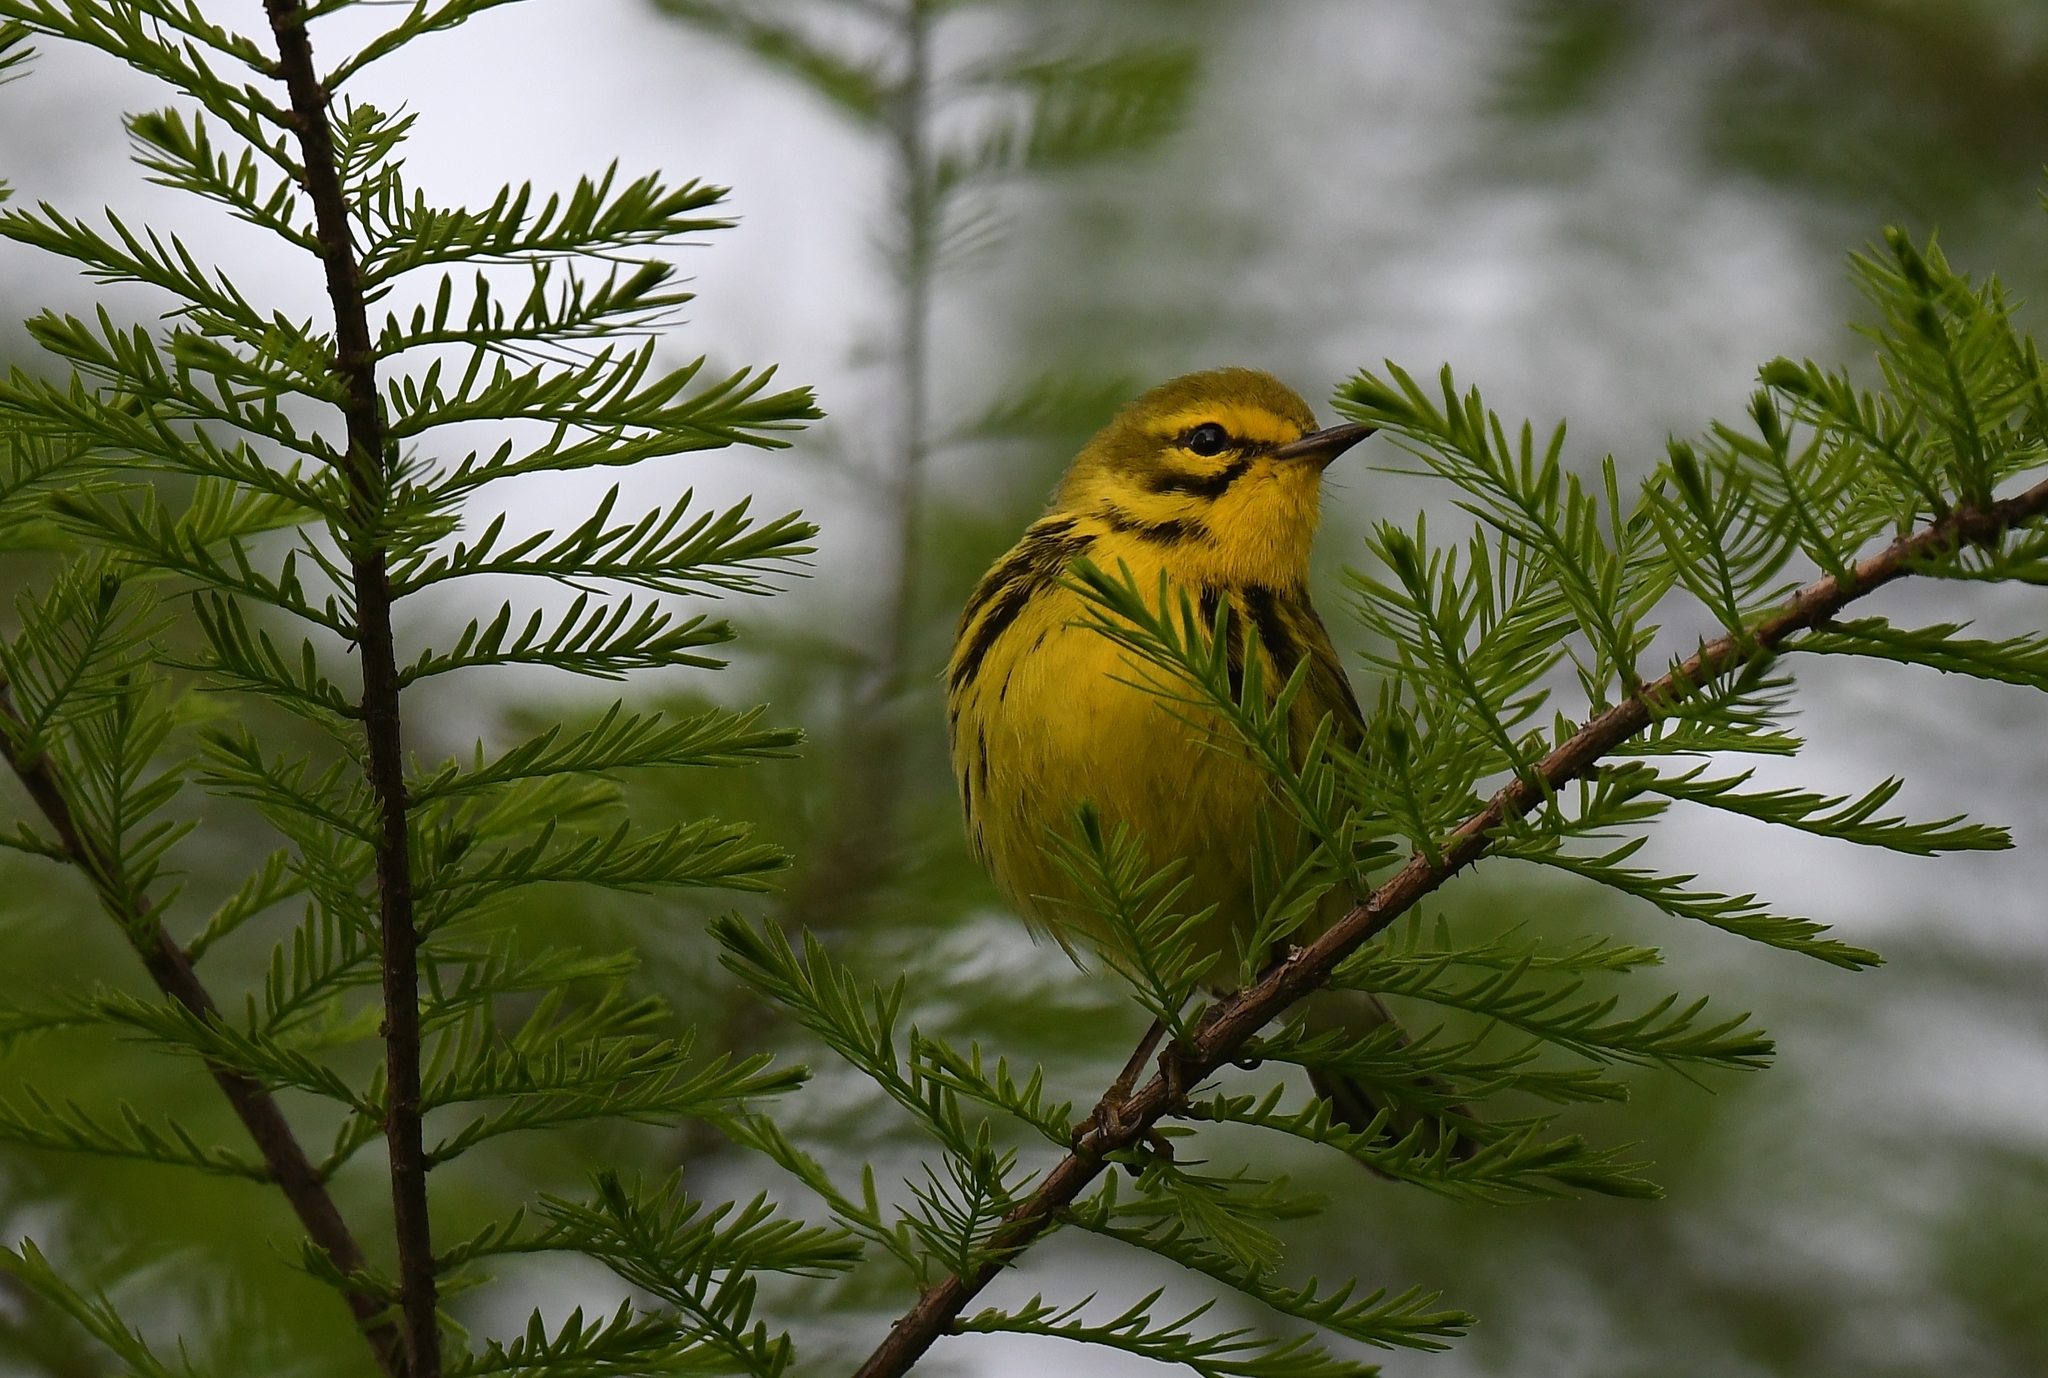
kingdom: Animalia
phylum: Chordata
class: Aves
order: Passeriformes
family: Parulidae
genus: Setophaga
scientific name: Setophaga discolor
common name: Prairie warbler
